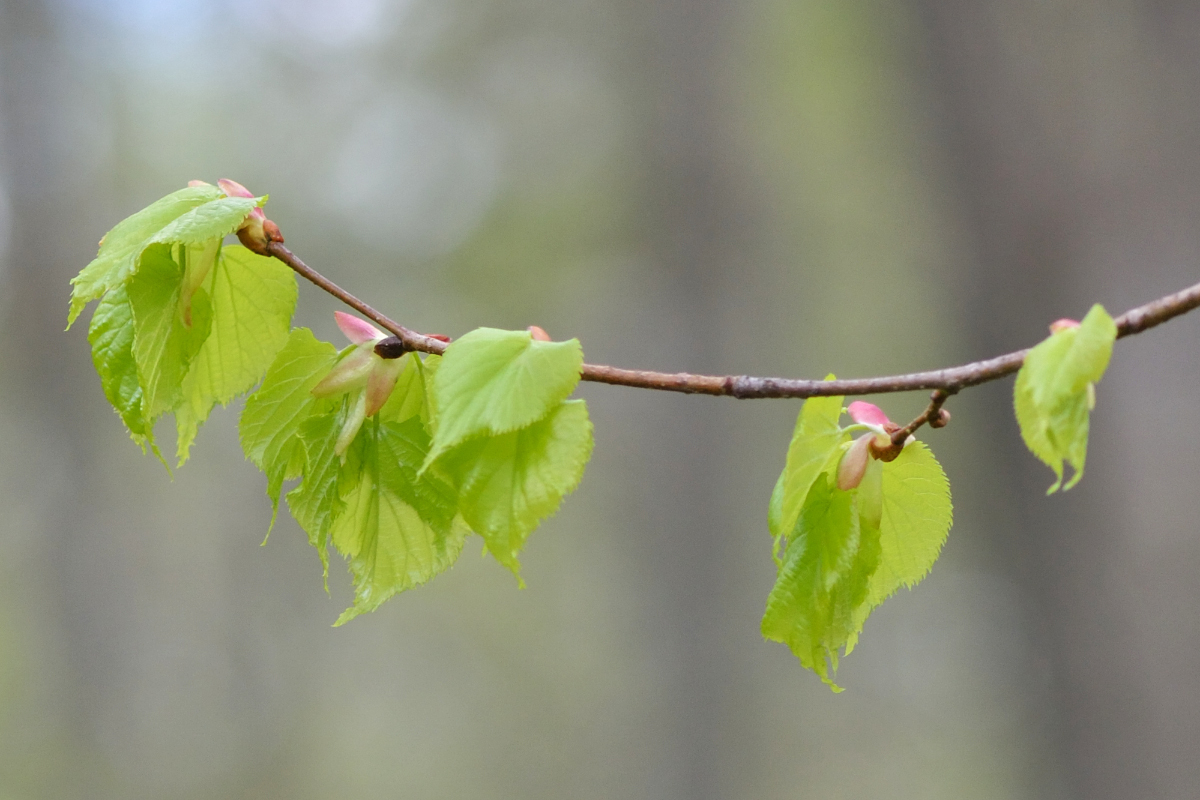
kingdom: Plantae
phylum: Tracheophyta
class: Magnoliopsida
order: Malvales
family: Malvaceae
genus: Tilia
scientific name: Tilia cordata
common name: Small-leaved lime
